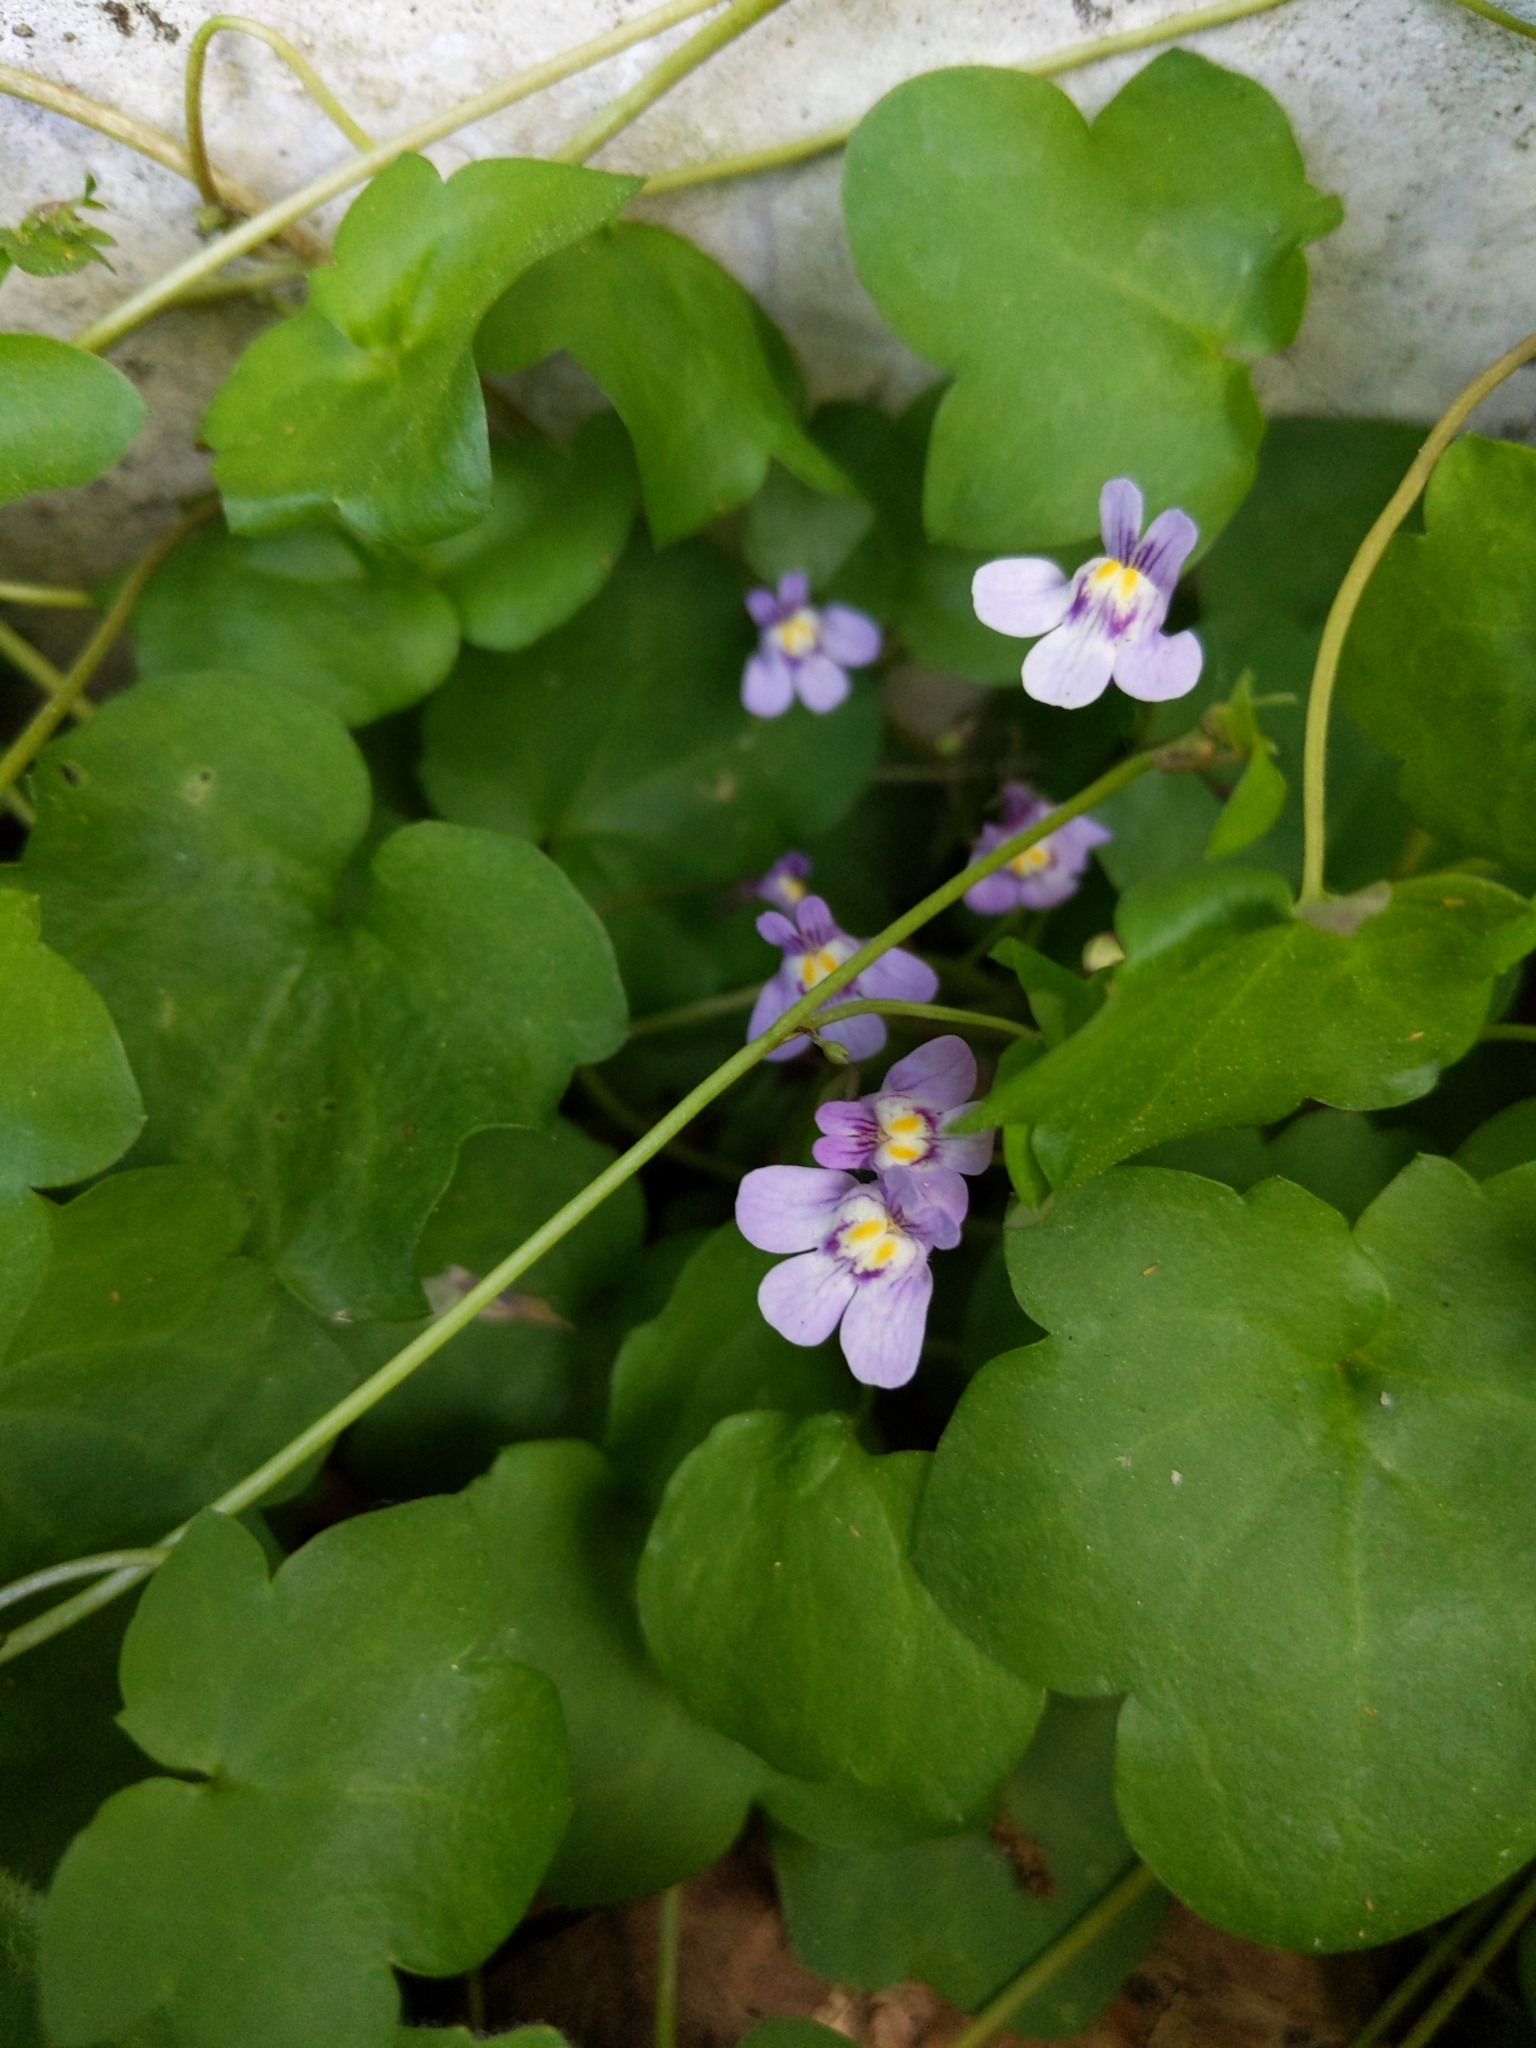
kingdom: Plantae
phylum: Tracheophyta
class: Magnoliopsida
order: Lamiales
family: Plantaginaceae
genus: Cymbalaria
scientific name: Cymbalaria muralis
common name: Ivy-leaved toadflax
